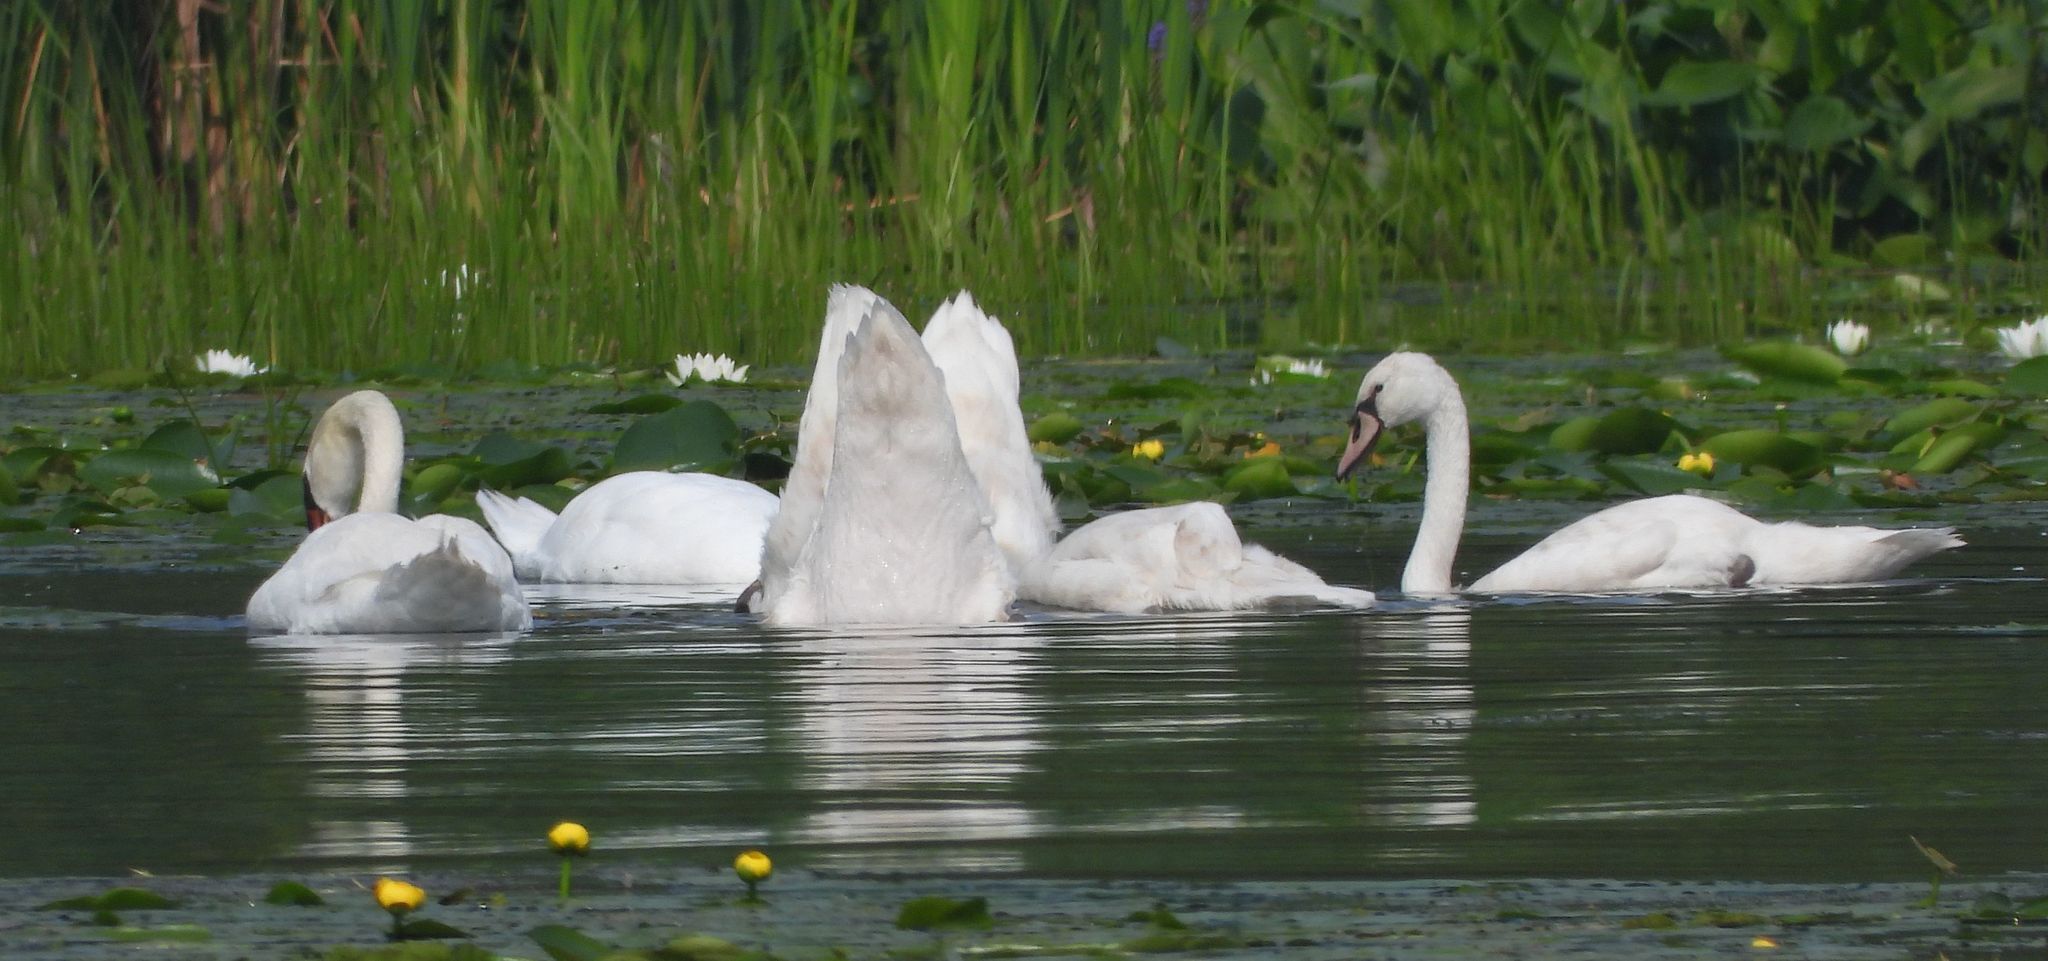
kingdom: Animalia
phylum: Chordata
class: Aves
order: Anseriformes
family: Anatidae
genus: Cygnus
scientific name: Cygnus olor
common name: Mute swan
